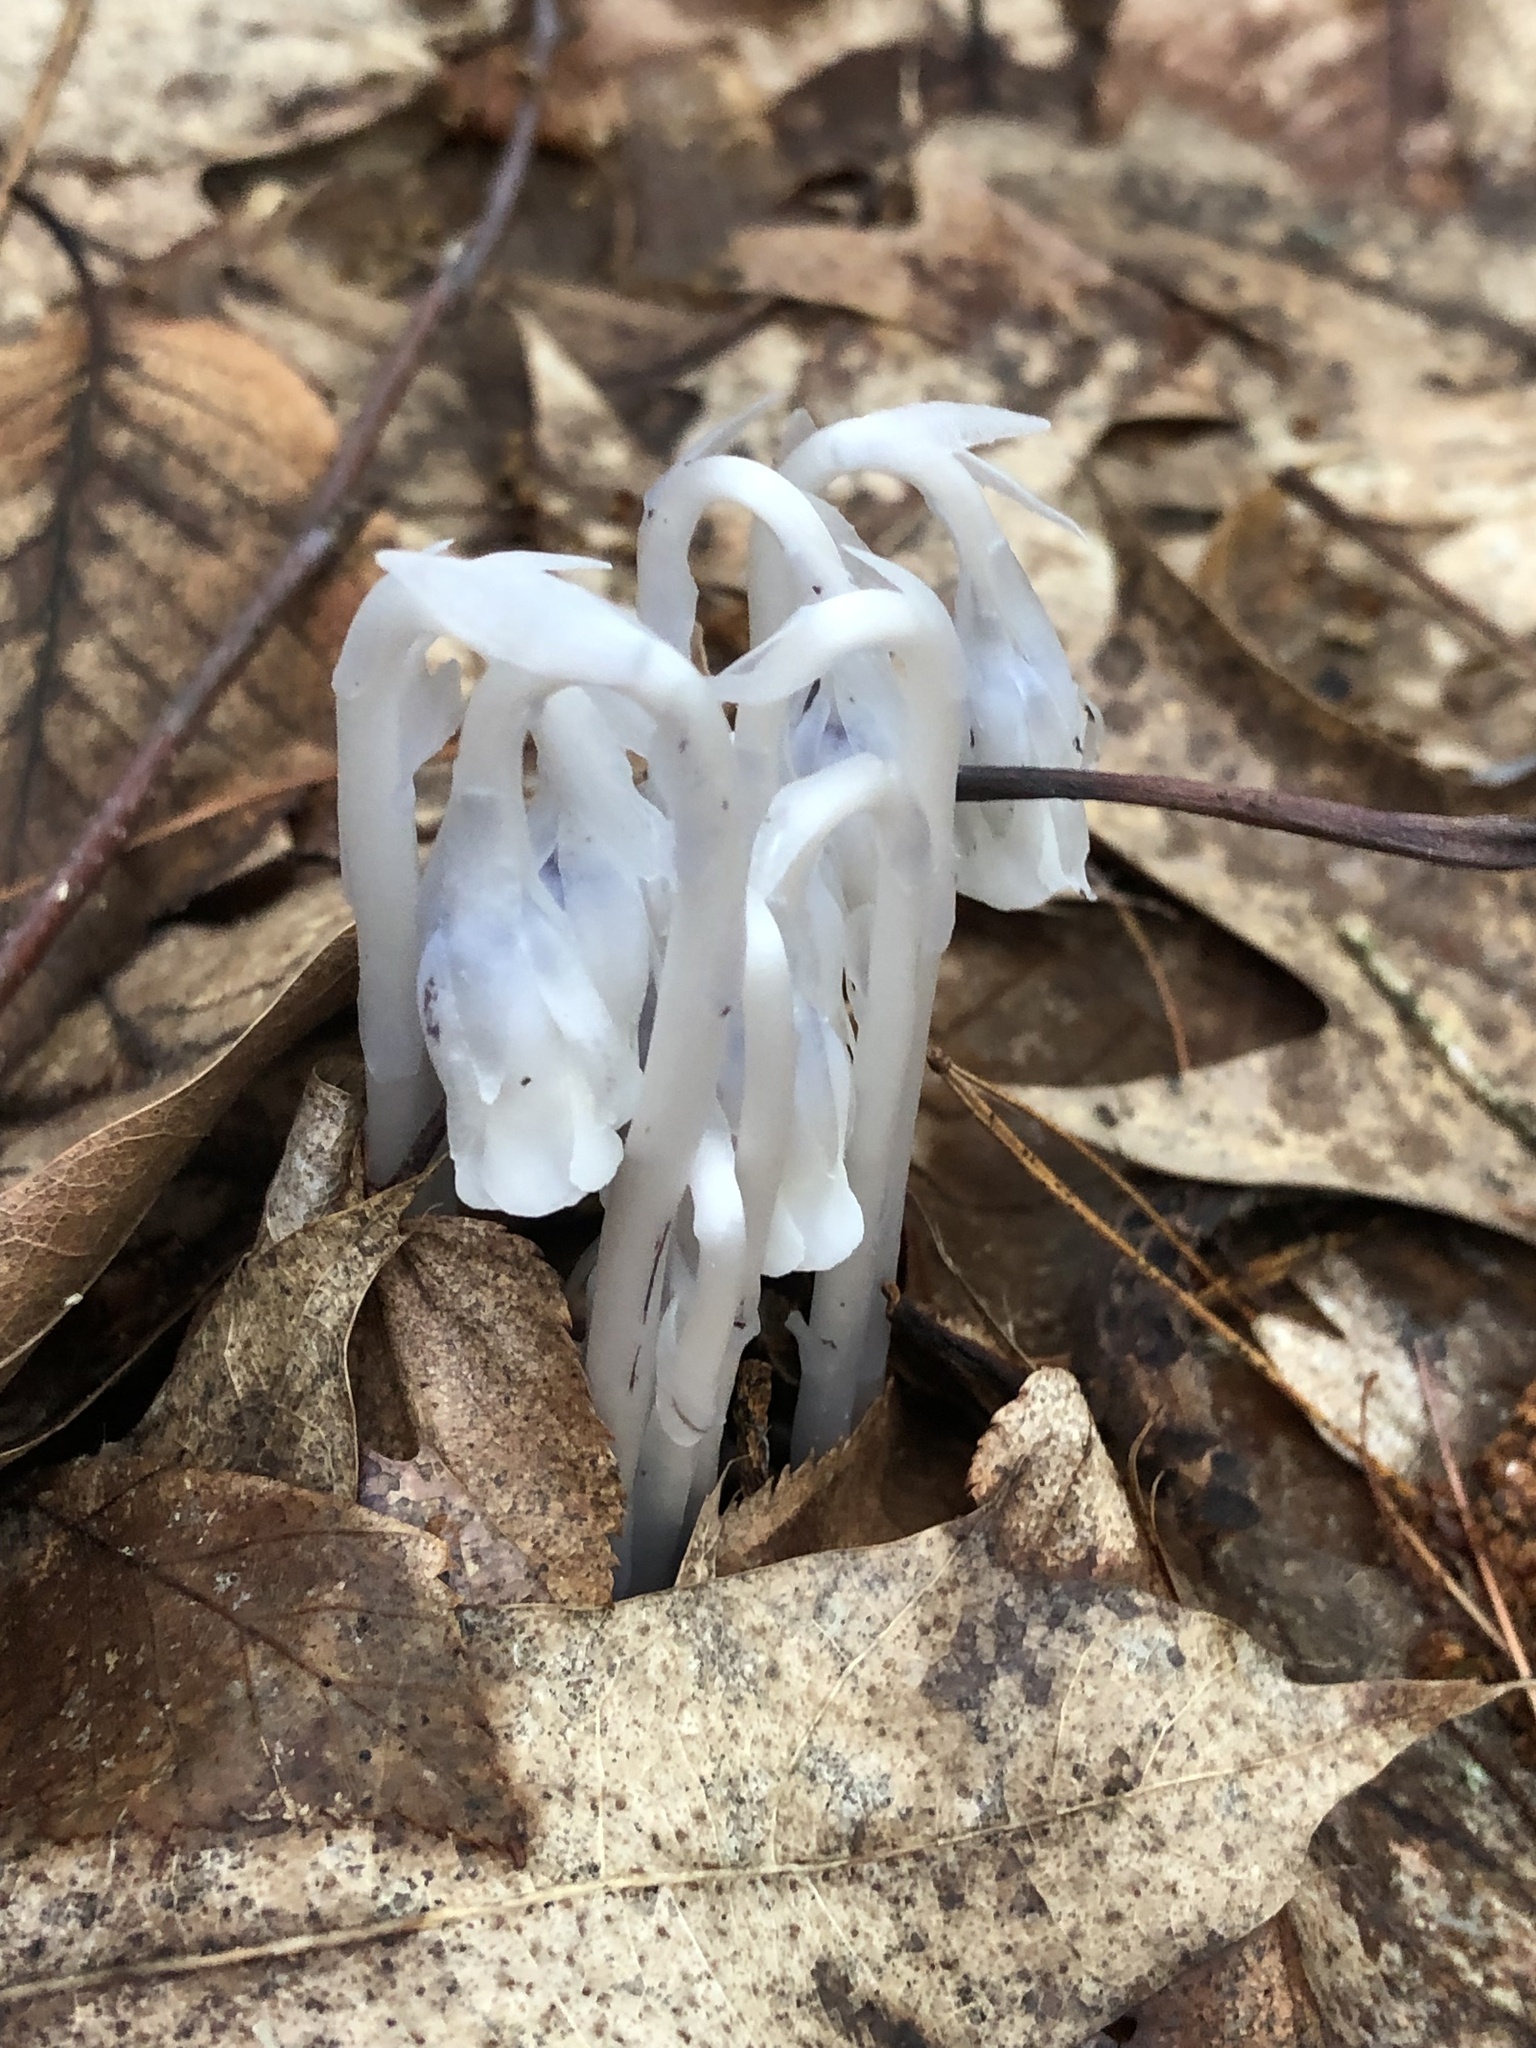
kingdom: Plantae
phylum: Tracheophyta
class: Magnoliopsida
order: Ericales
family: Ericaceae
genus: Monotropa
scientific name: Monotropa uniflora
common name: Convulsion root
